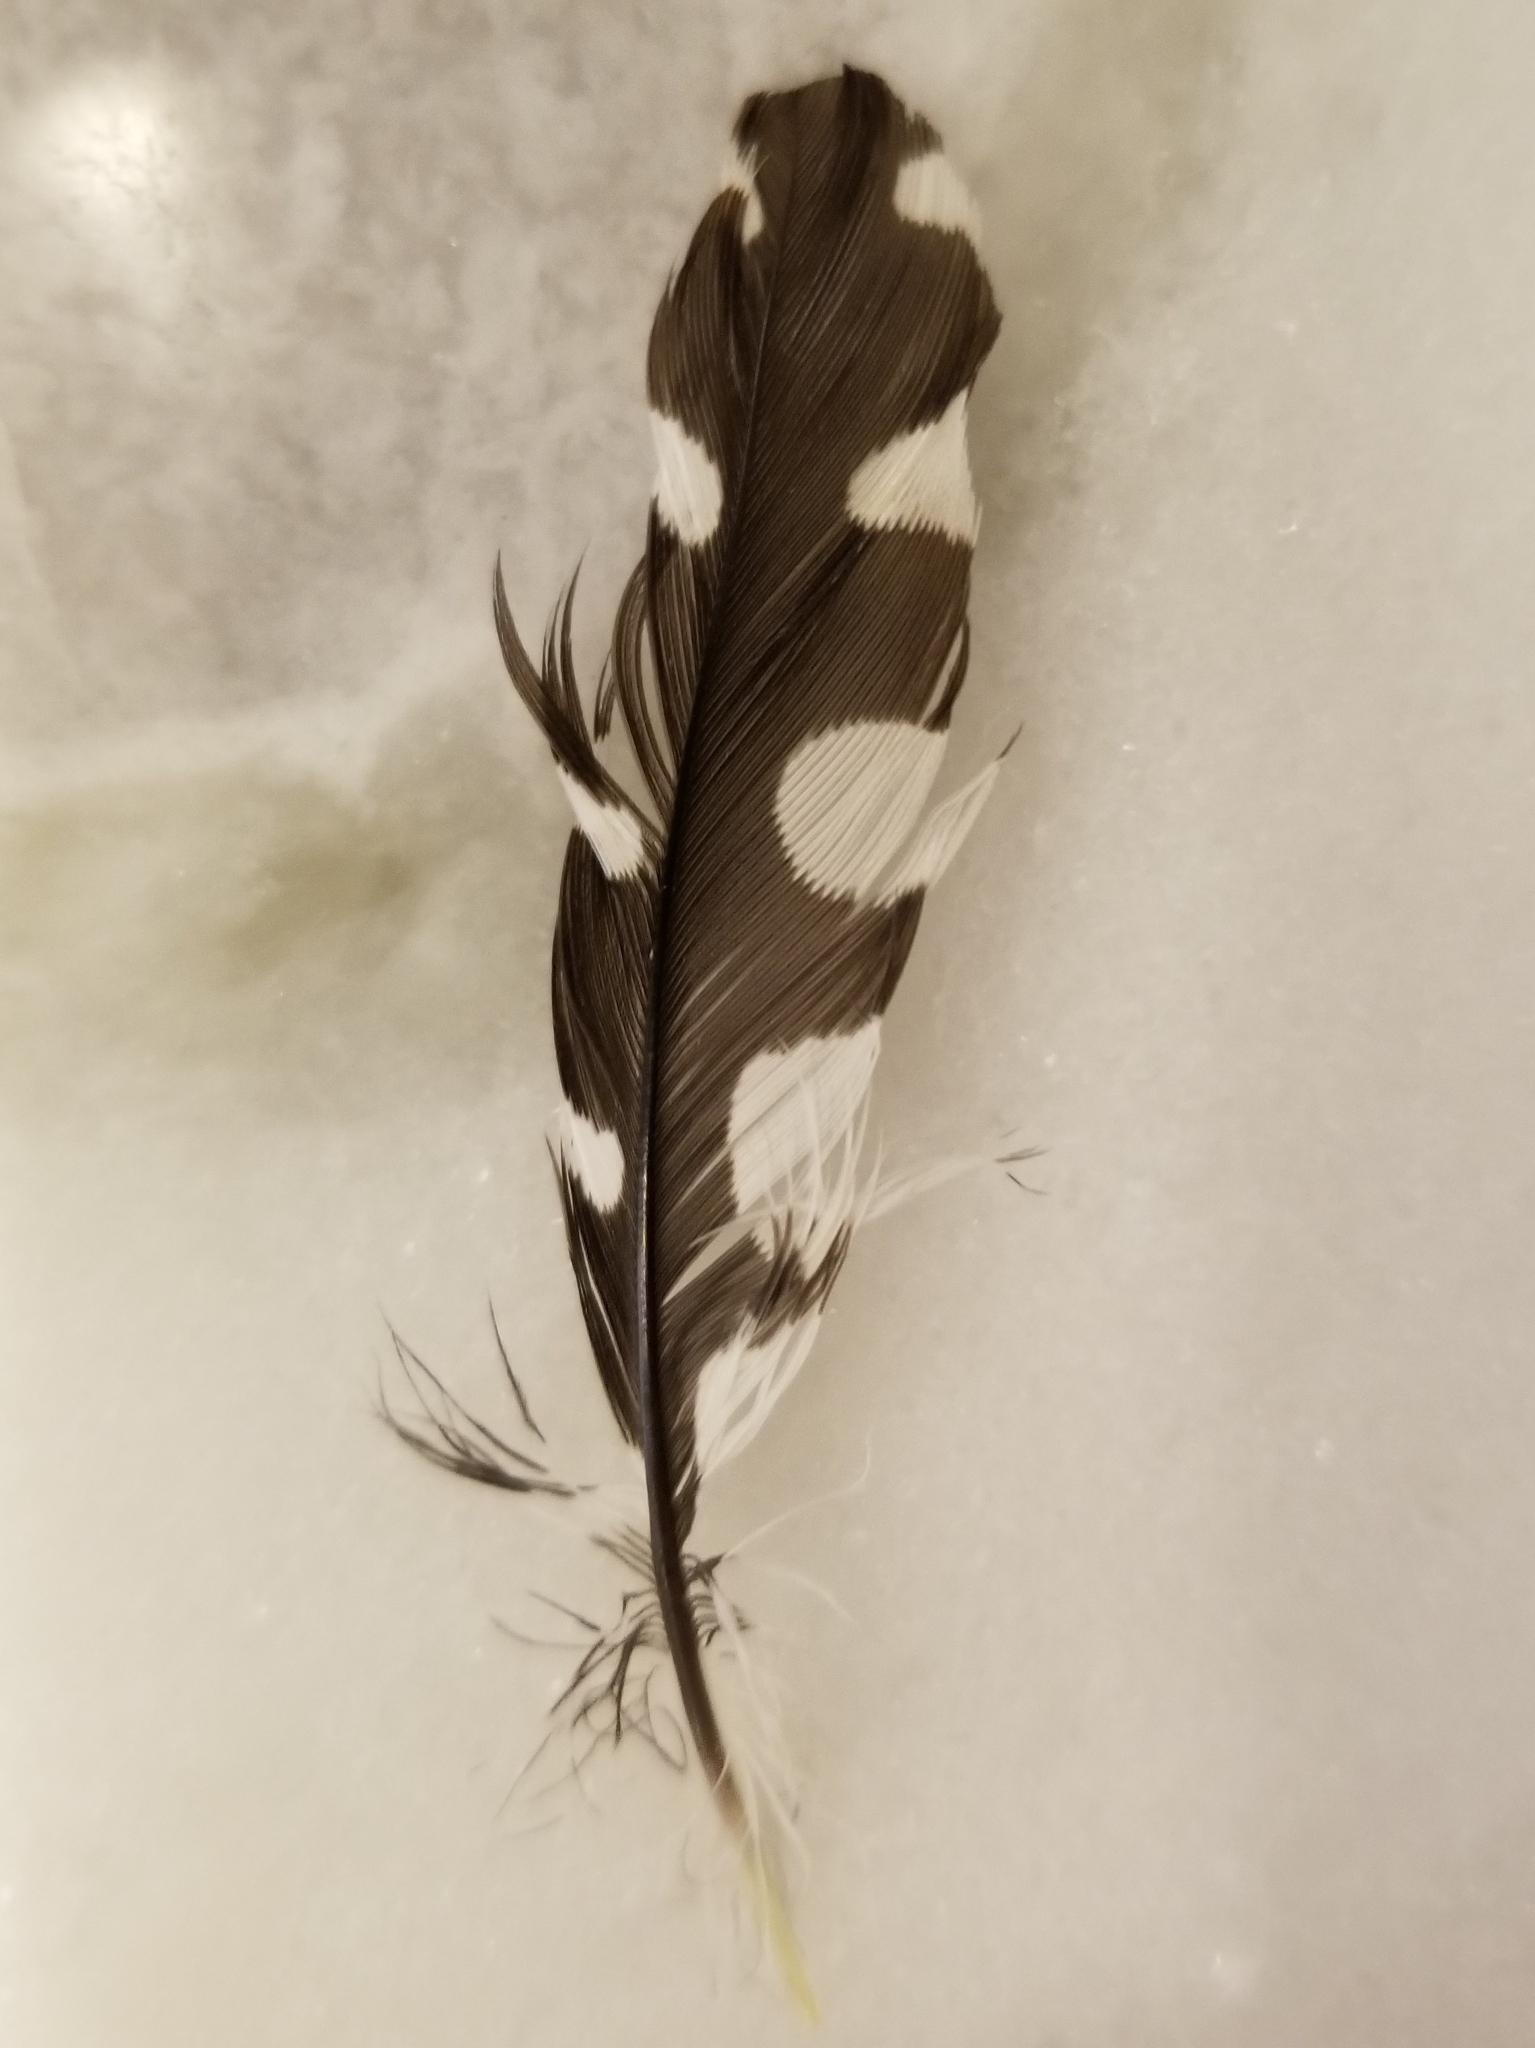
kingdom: Animalia
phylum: Chordata
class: Aves
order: Piciformes
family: Picidae
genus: Dryobates
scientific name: Dryobates pubescens
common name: Downy woodpecker
